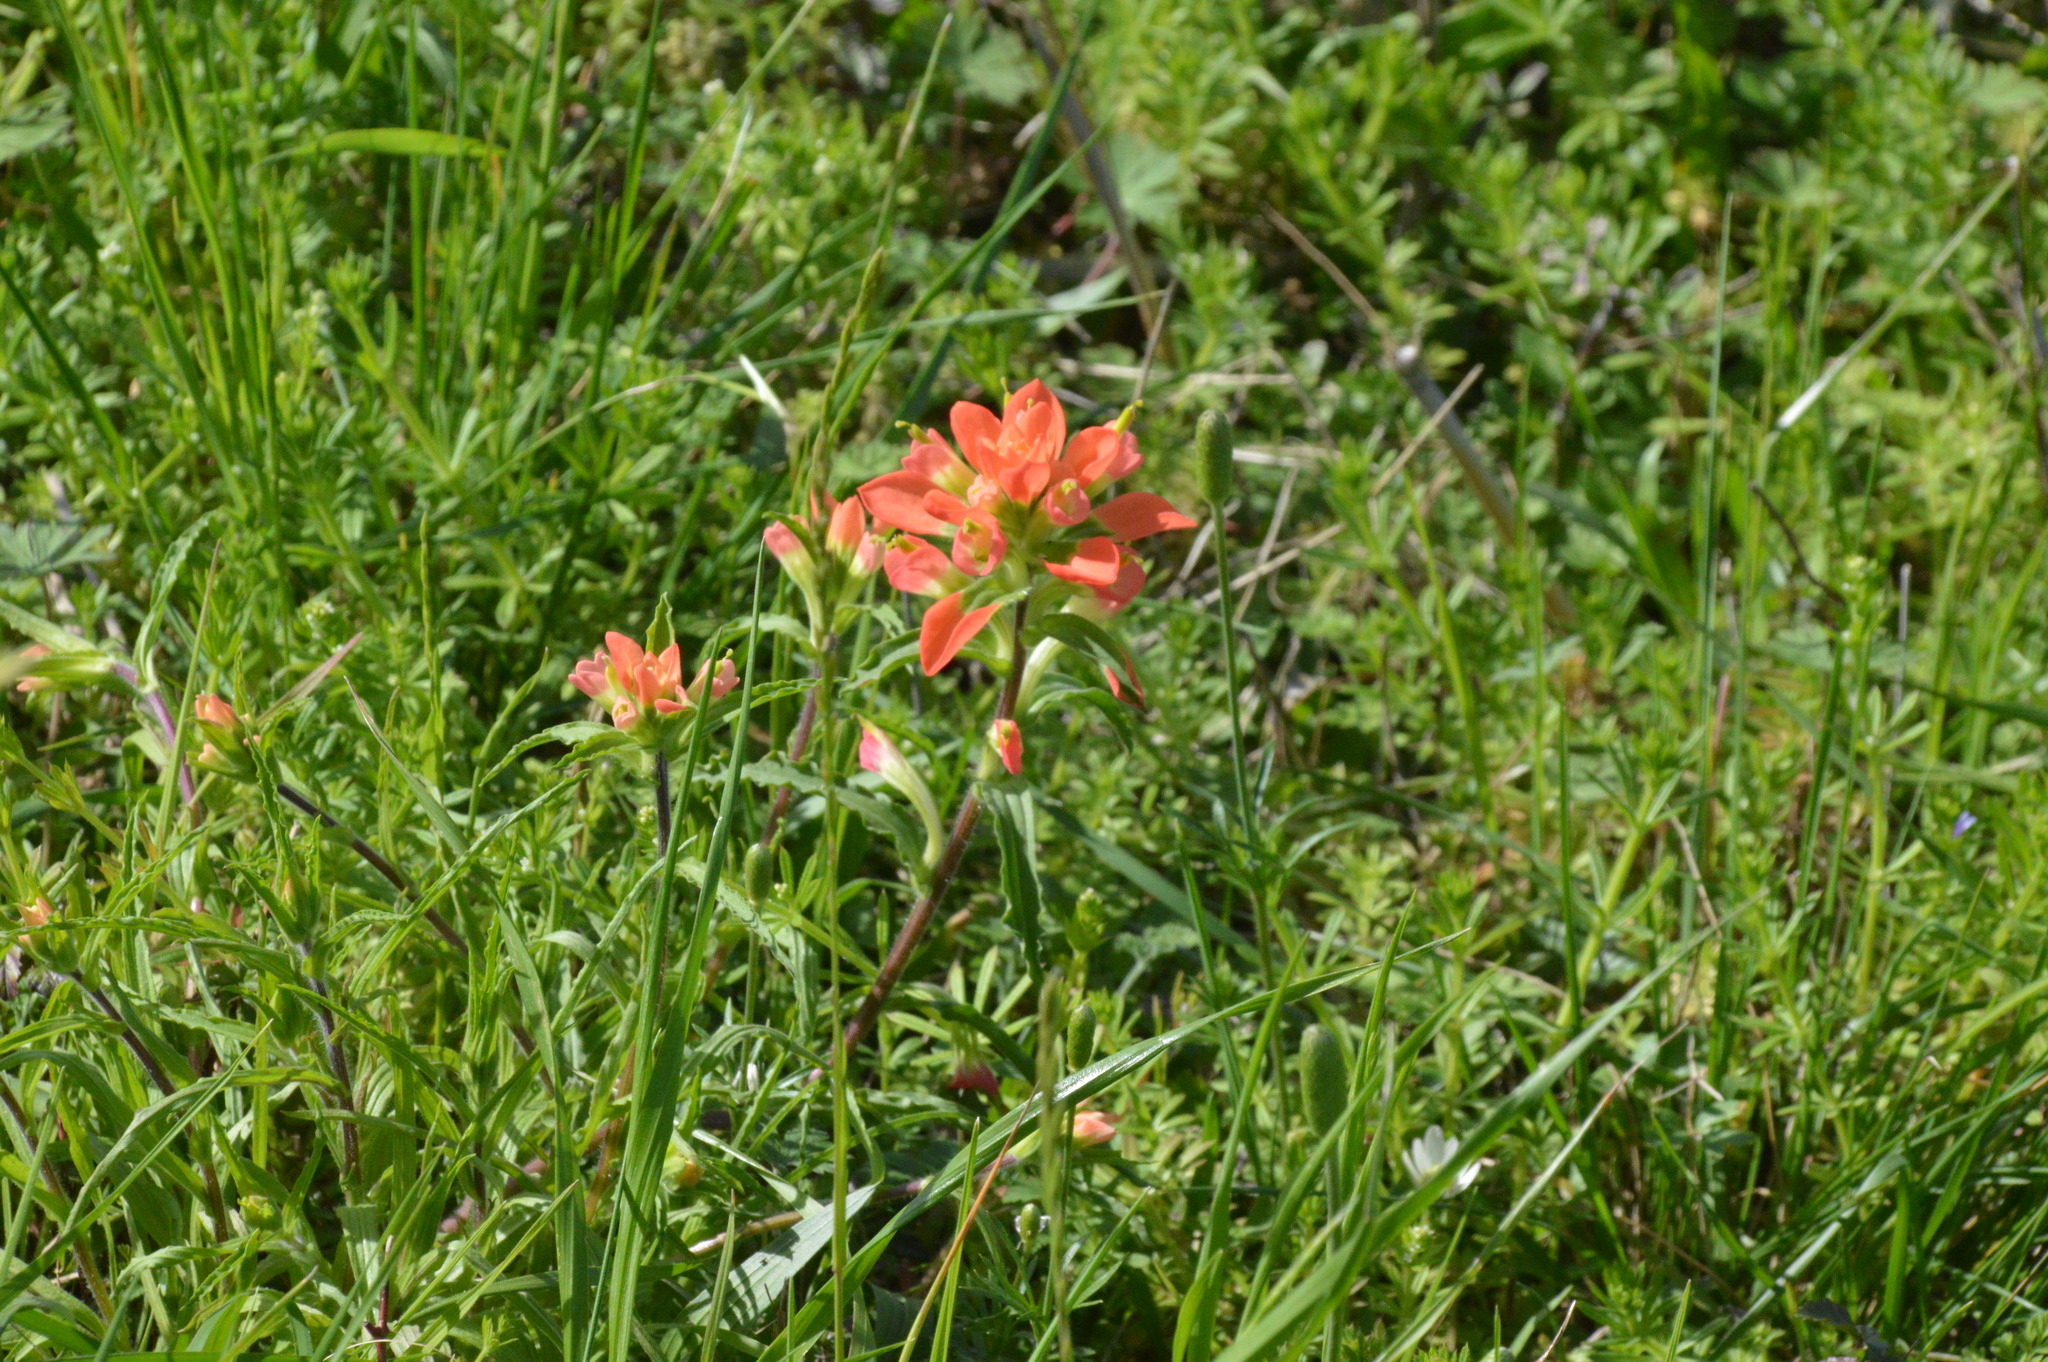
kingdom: Plantae
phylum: Tracheophyta
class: Magnoliopsida
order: Lamiales
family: Orobanchaceae
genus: Castilleja
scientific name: Castilleja indivisa
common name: Texas paintbrush
